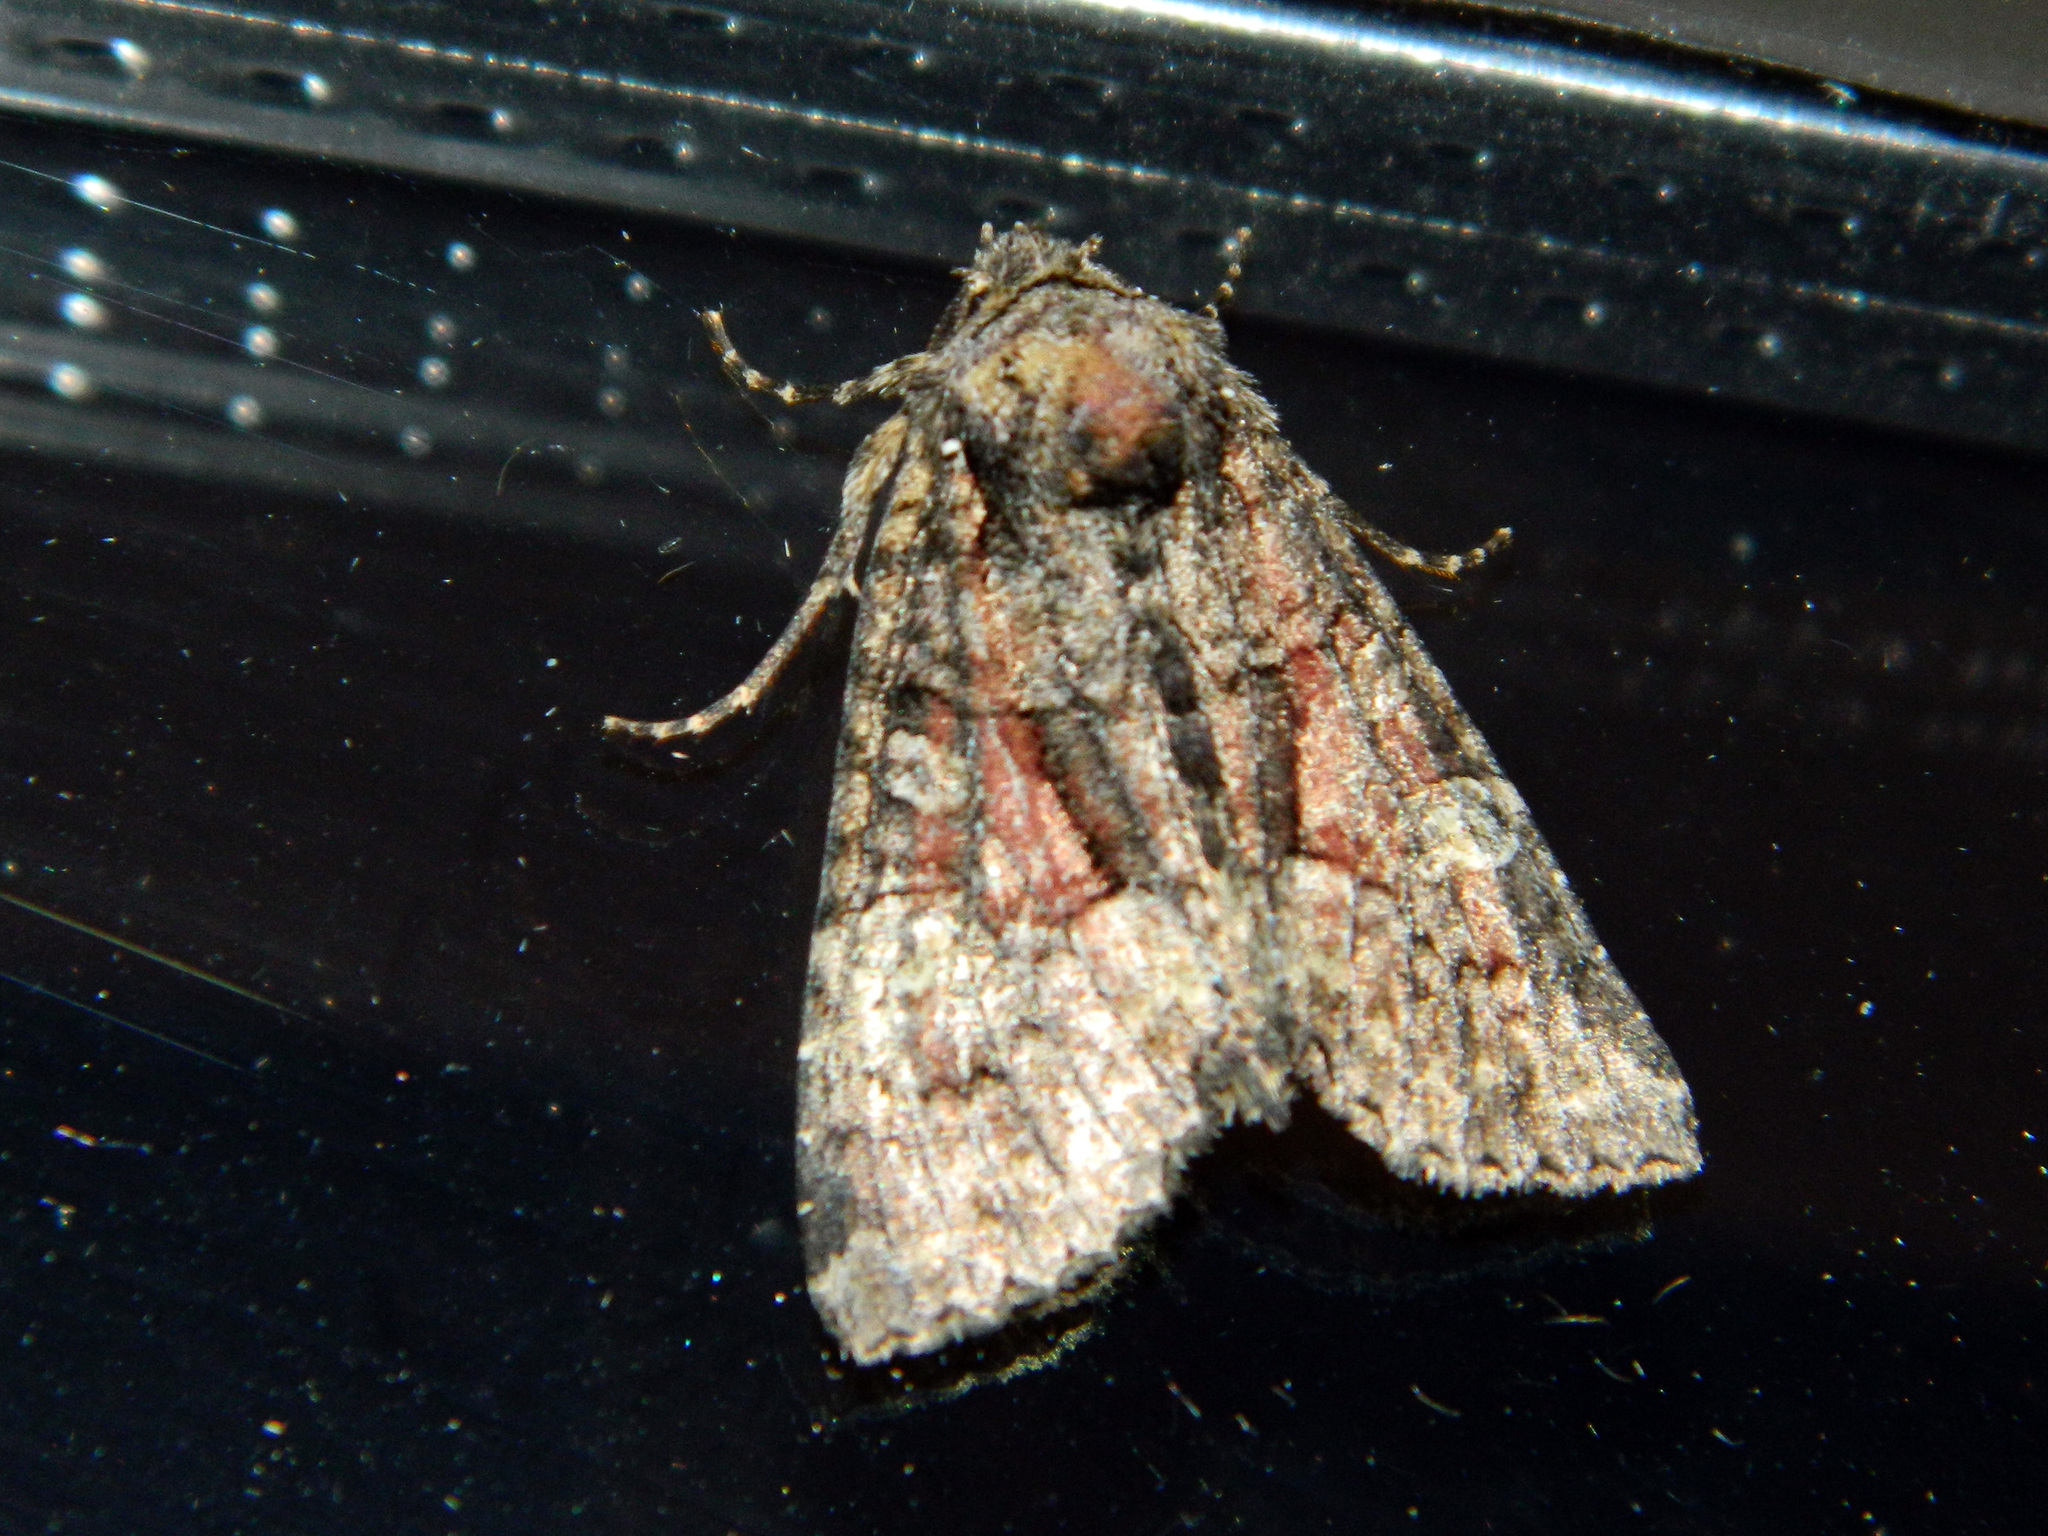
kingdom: Animalia
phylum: Arthropoda
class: Insecta
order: Lepidoptera
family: Noctuidae
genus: Fishia
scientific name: Fishia illocata
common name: Wandering brocade moth
